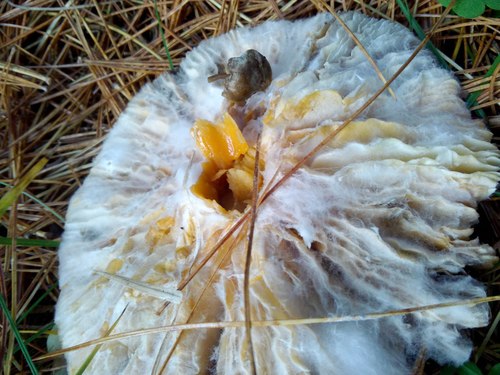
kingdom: Fungi
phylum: Basidiomycota
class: Agaricomycetes
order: Agaricales
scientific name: Agaricales
